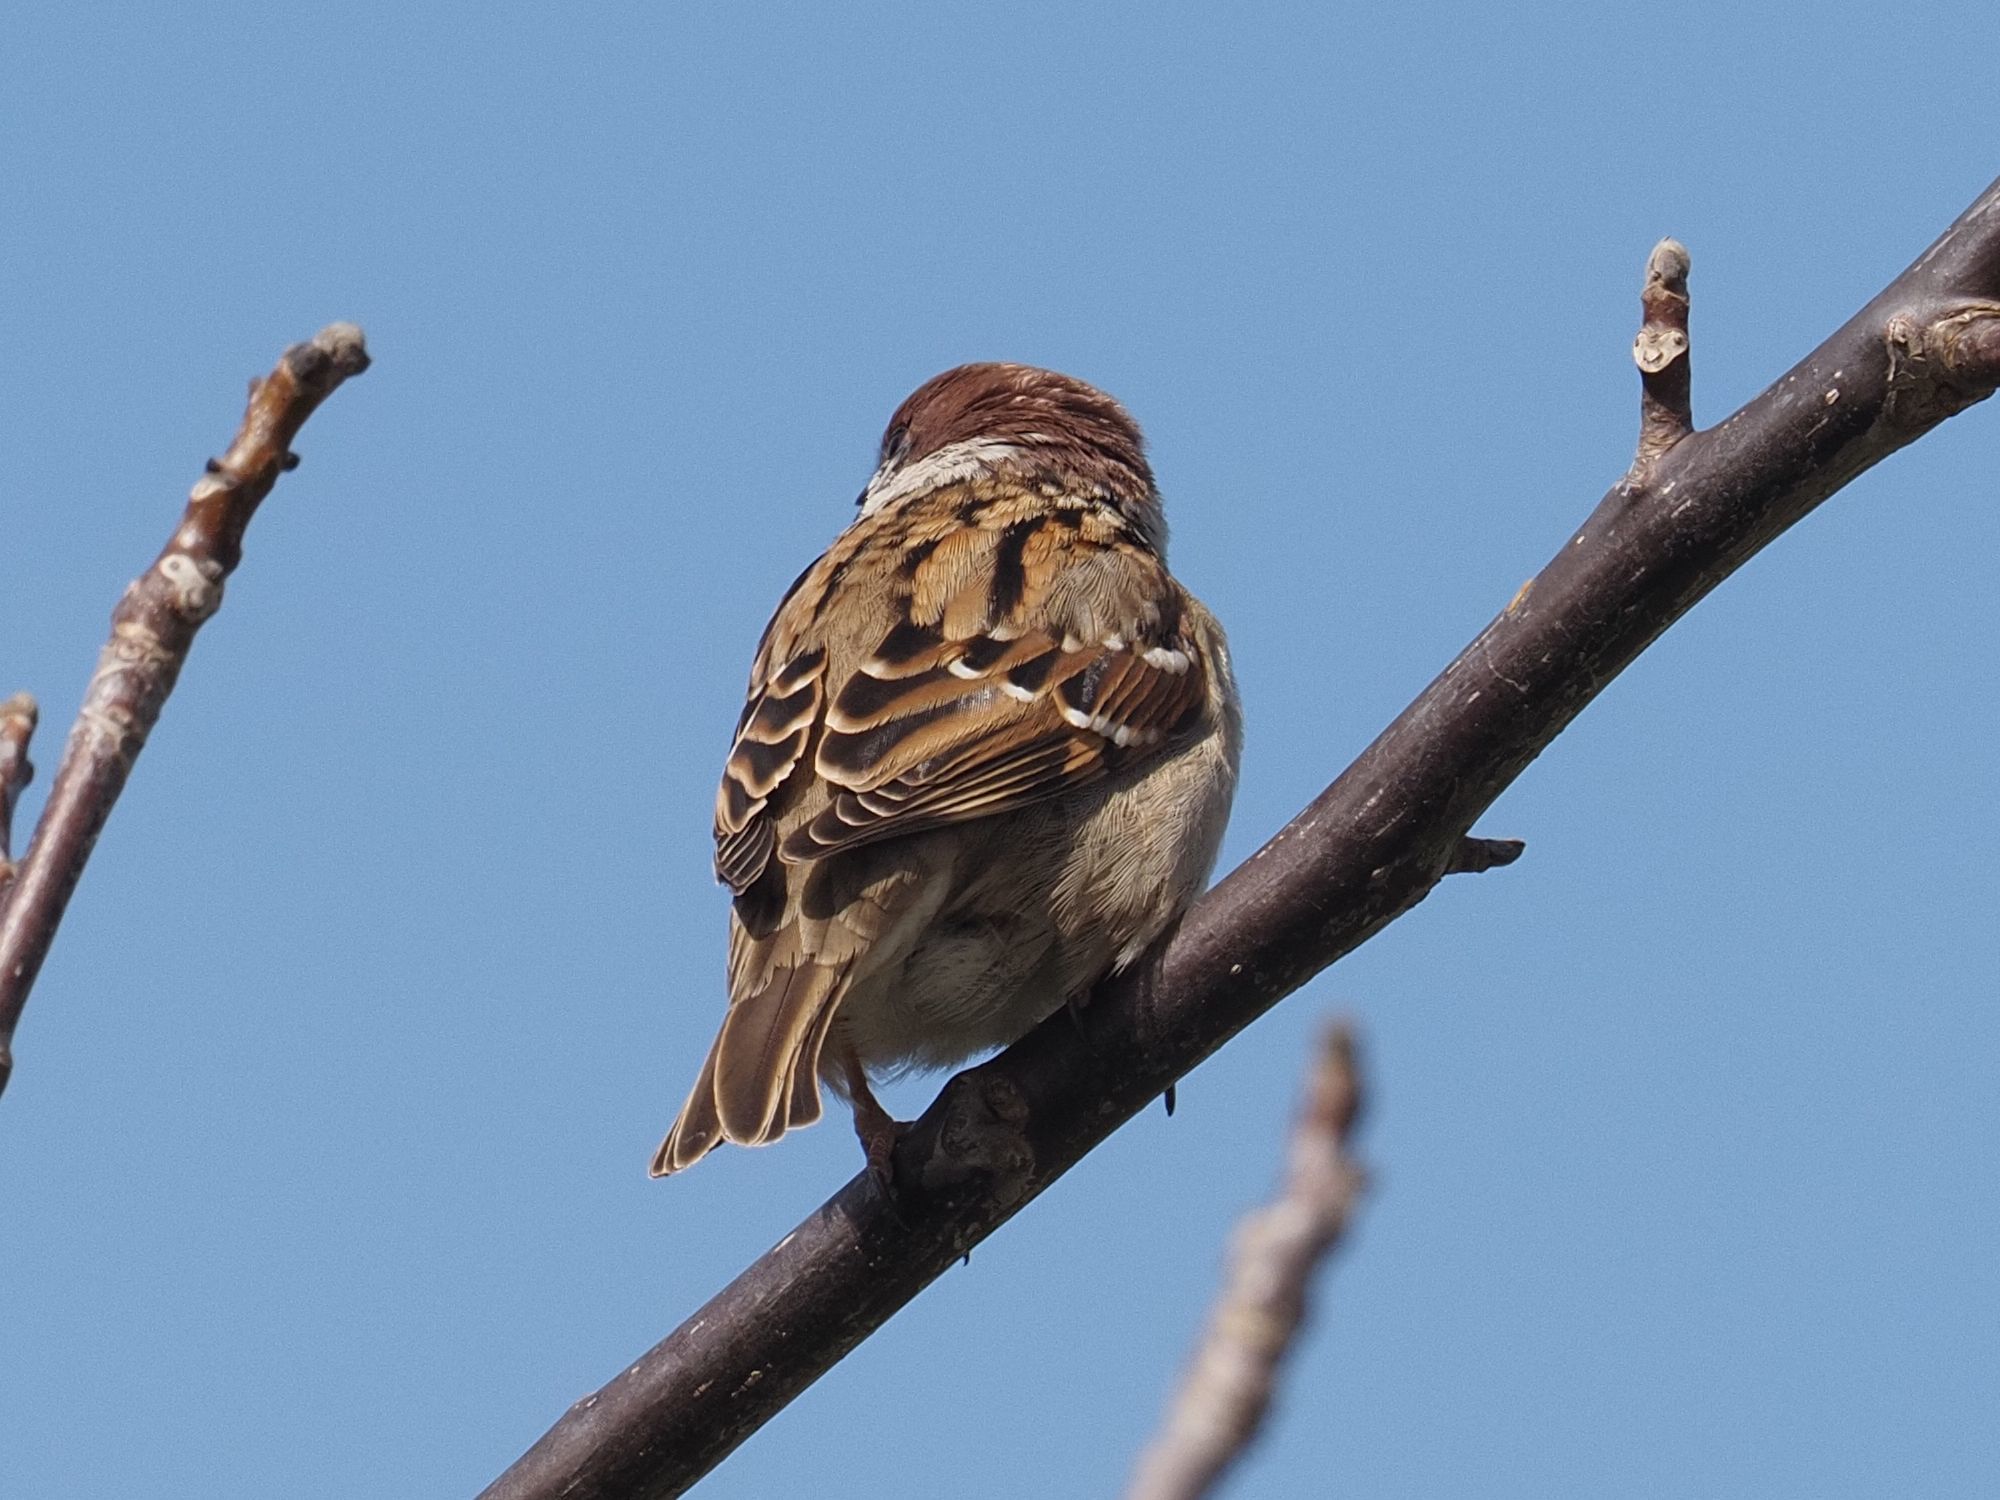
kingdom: Animalia
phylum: Chordata
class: Aves
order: Passeriformes
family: Passeridae
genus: Passer
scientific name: Passer montanus
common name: Eurasian tree sparrow
